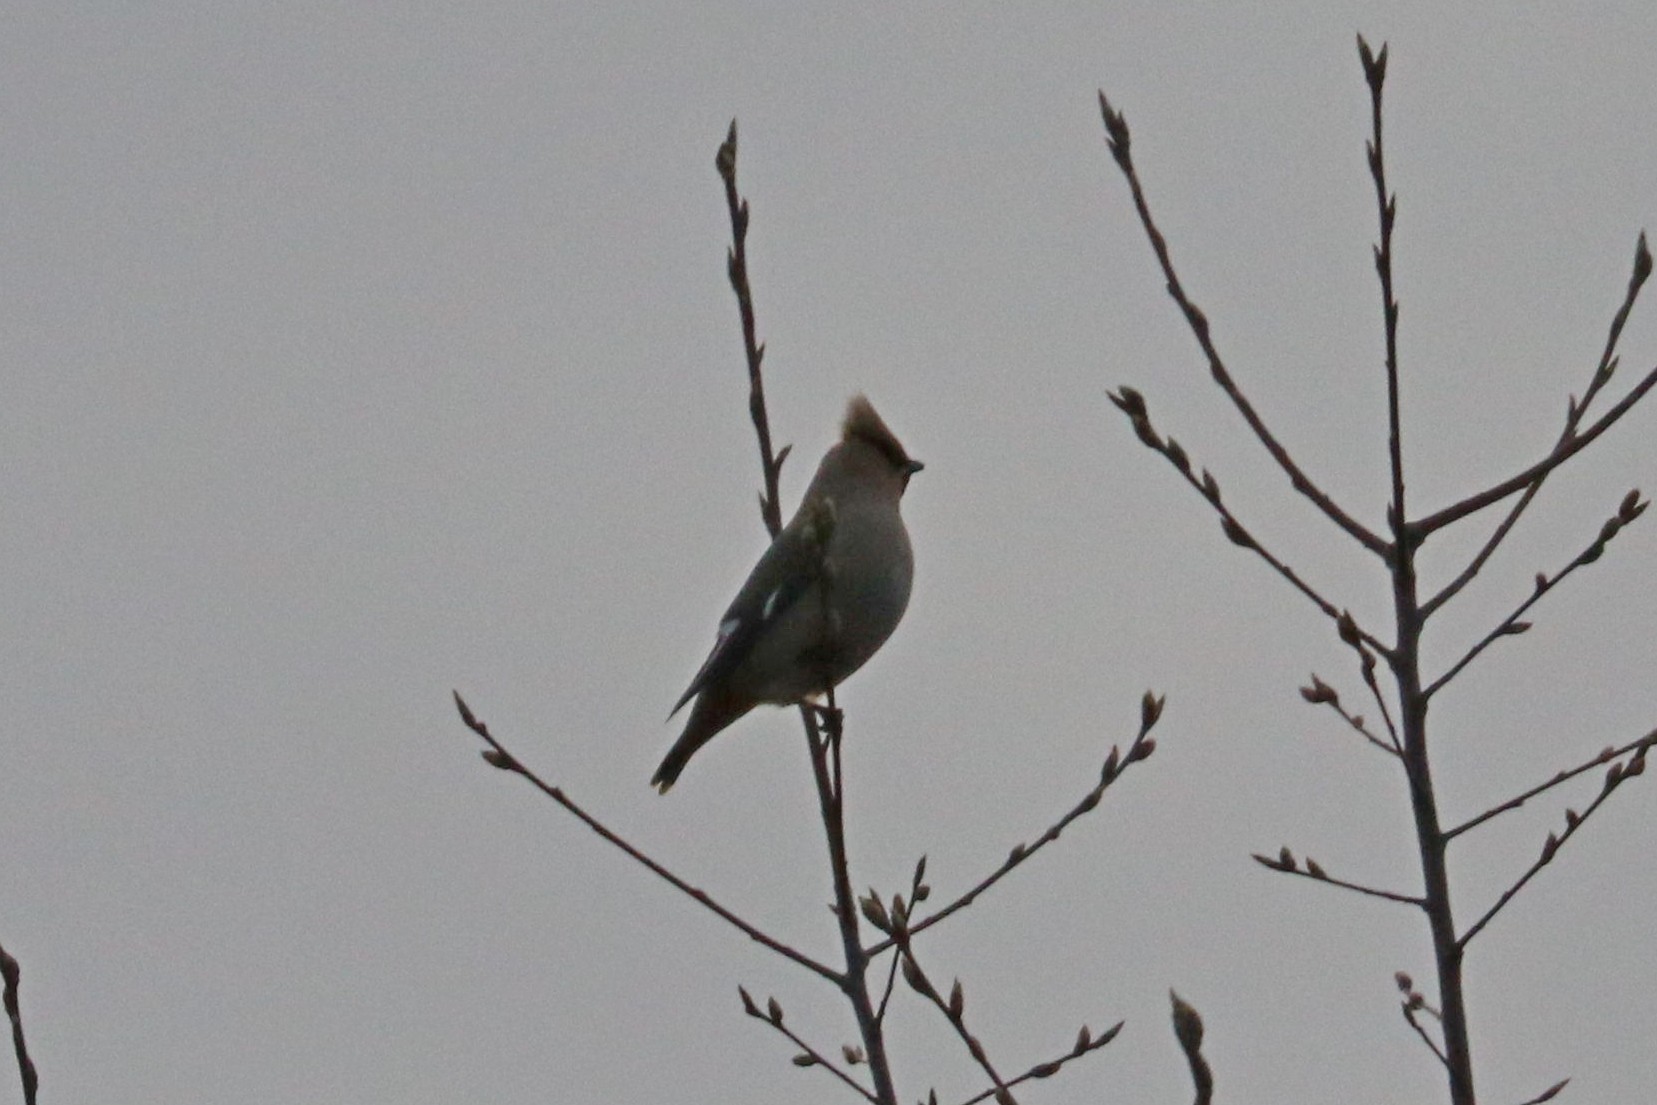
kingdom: Animalia
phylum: Chordata
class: Aves
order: Passeriformes
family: Bombycillidae
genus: Bombycilla
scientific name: Bombycilla garrulus
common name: Bohemian waxwing
